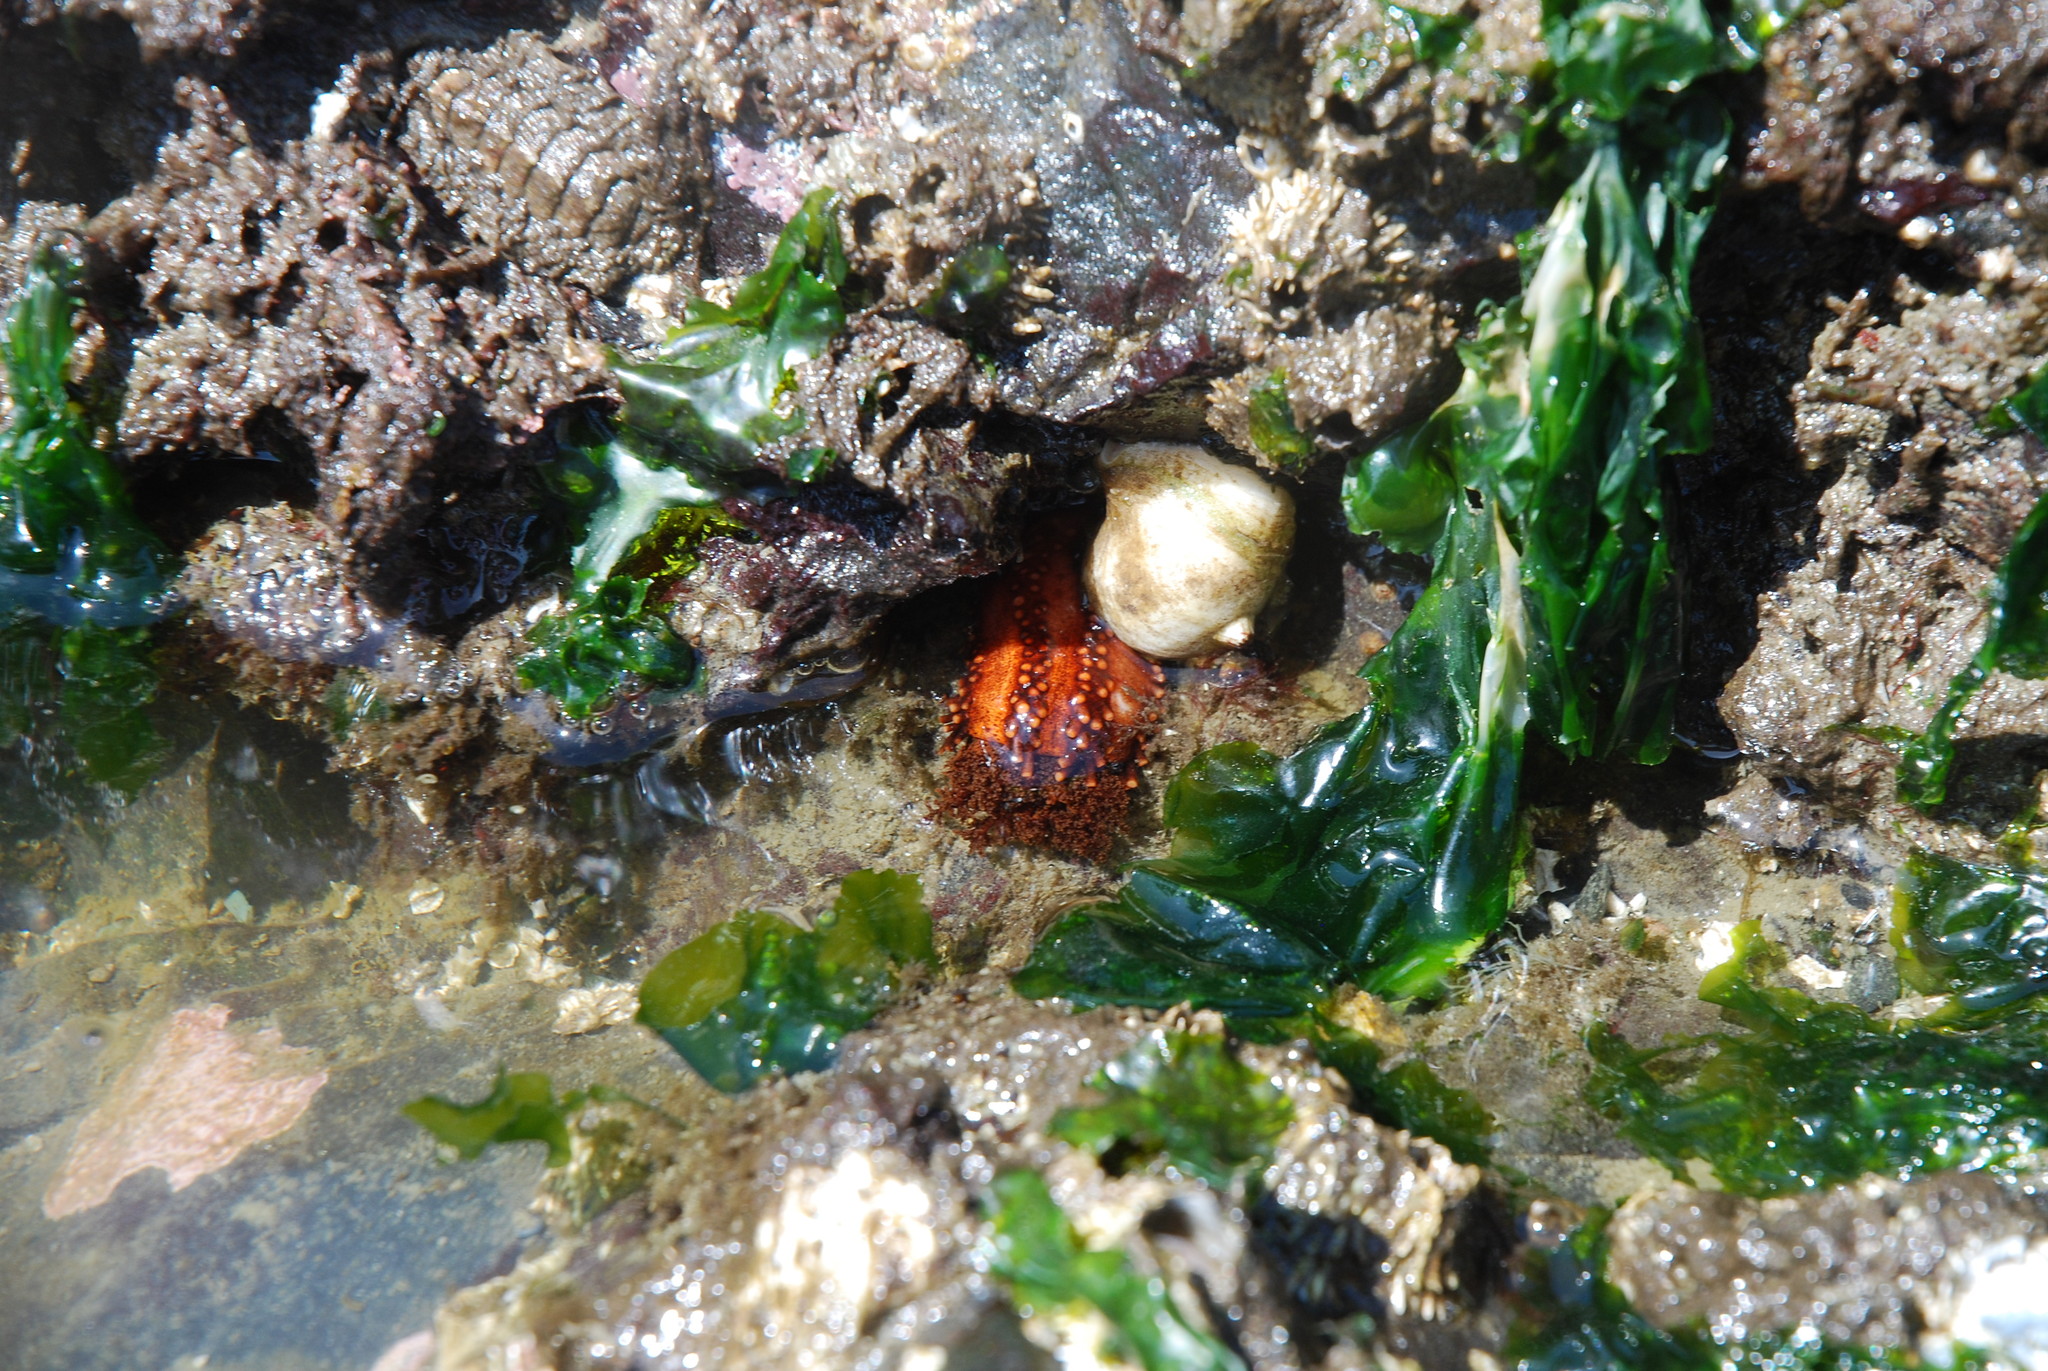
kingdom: Animalia
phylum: Echinodermata
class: Holothuroidea
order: Dendrochirotida
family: Cucumariidae
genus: Cucumaria
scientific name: Cucumaria miniata
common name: Orange sea cucumber
